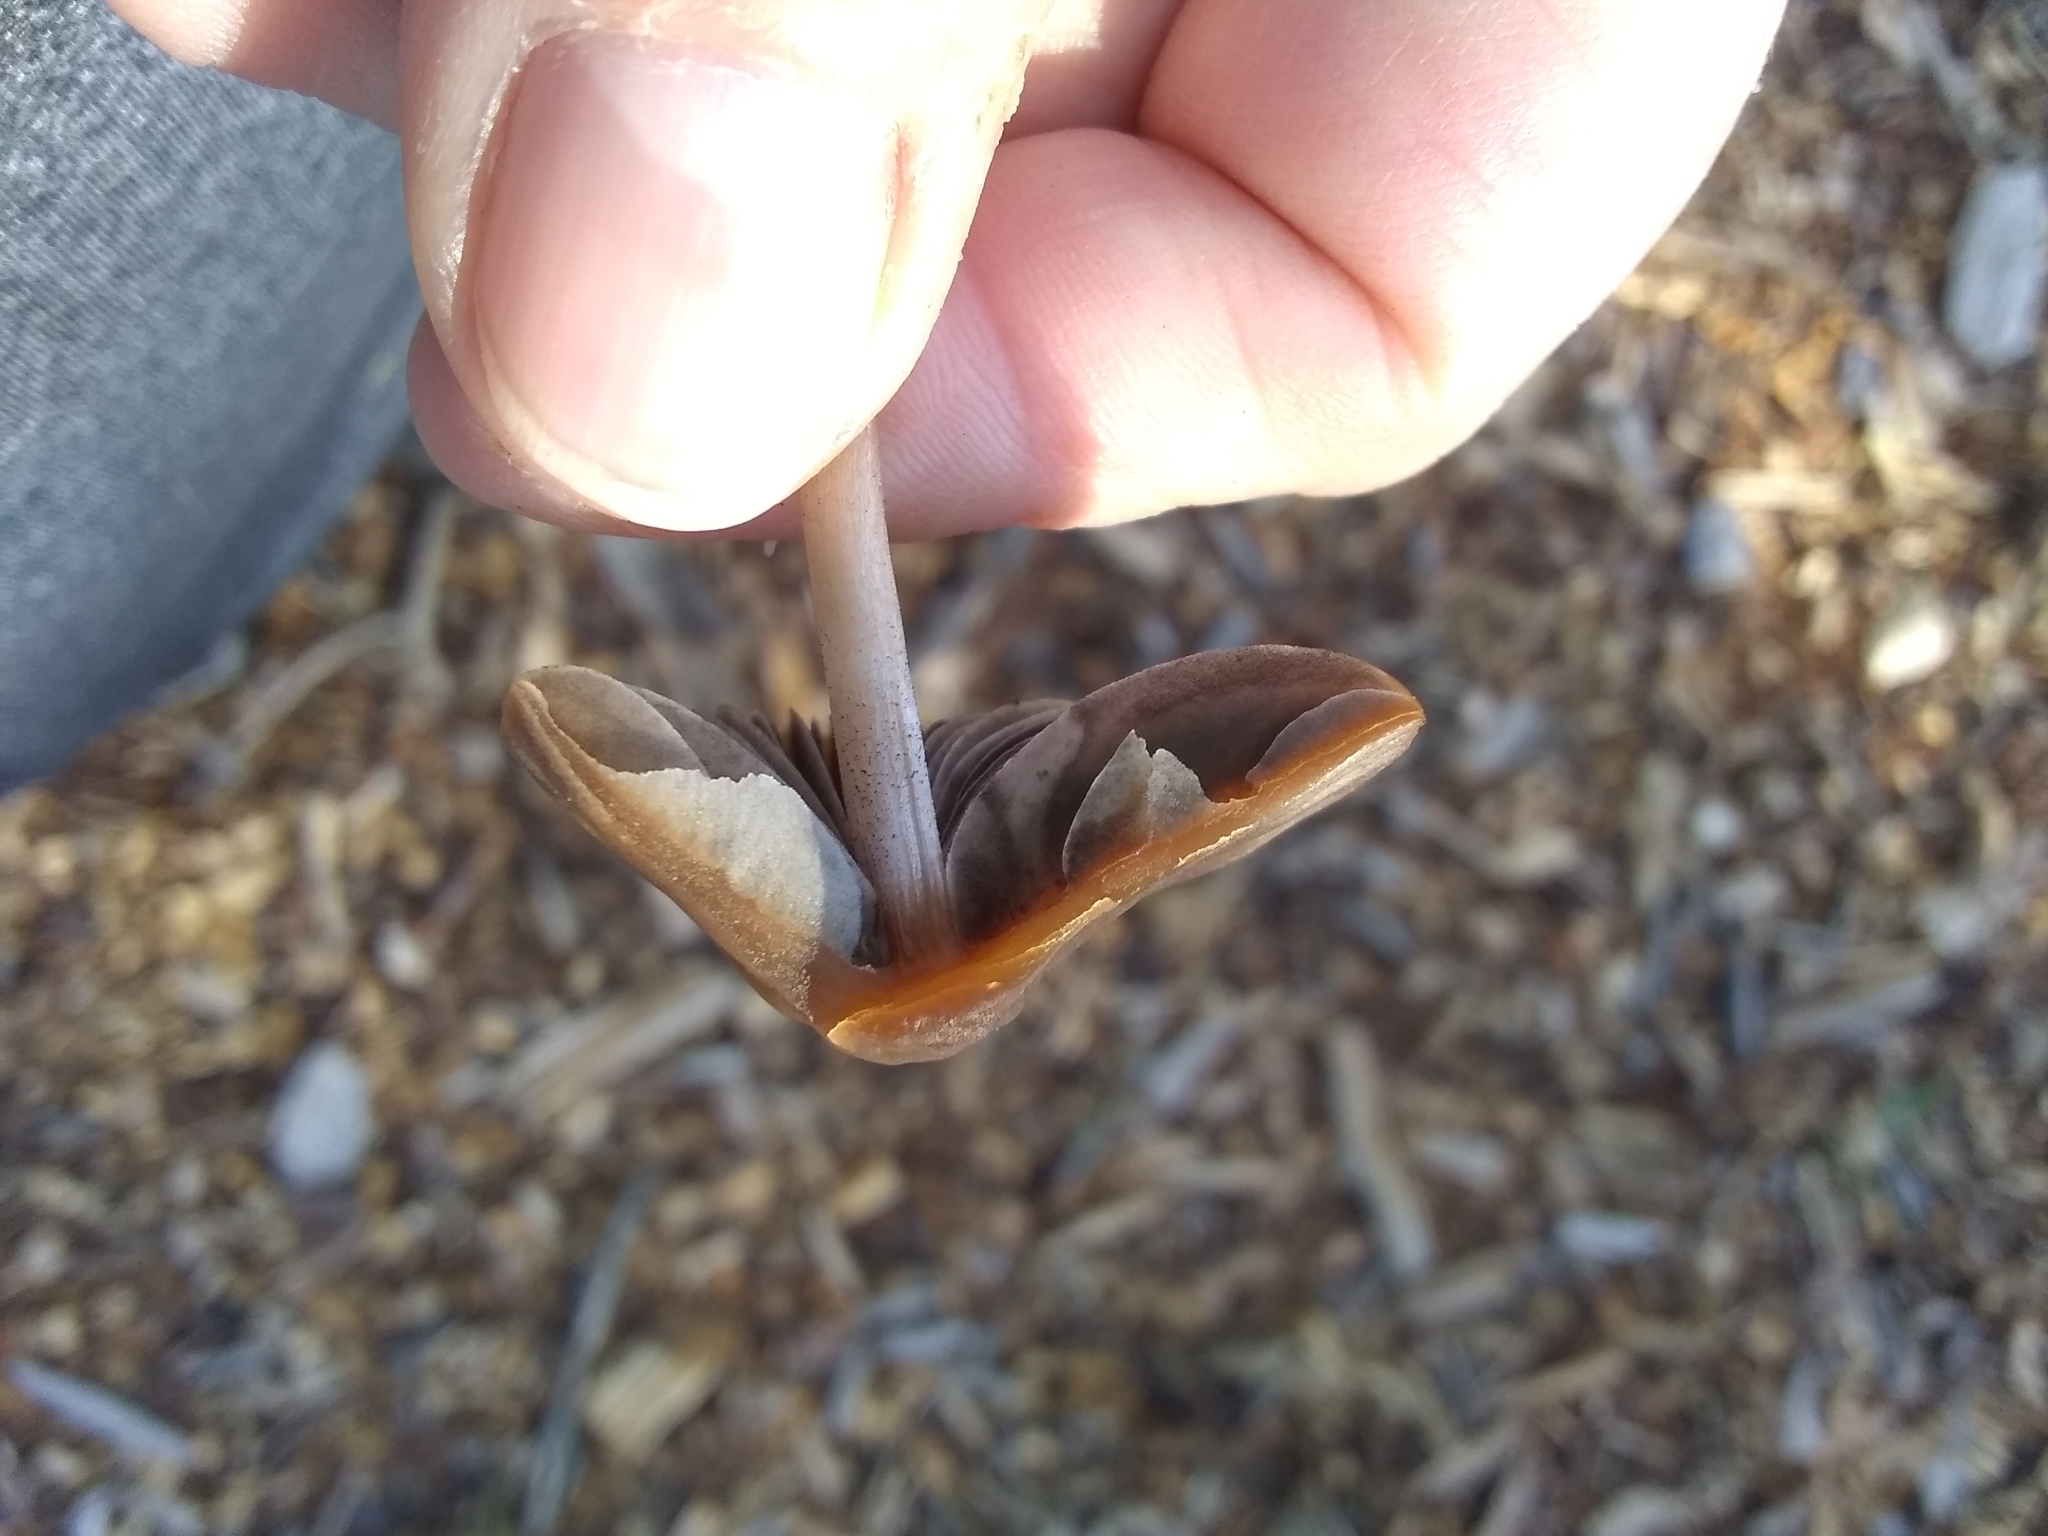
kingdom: Fungi
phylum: Basidiomycota
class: Agaricomycetes
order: Agaricales
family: Psathyrellaceae
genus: Psathyrella
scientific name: Psathyrella corrugis
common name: Red edge brittlestem
